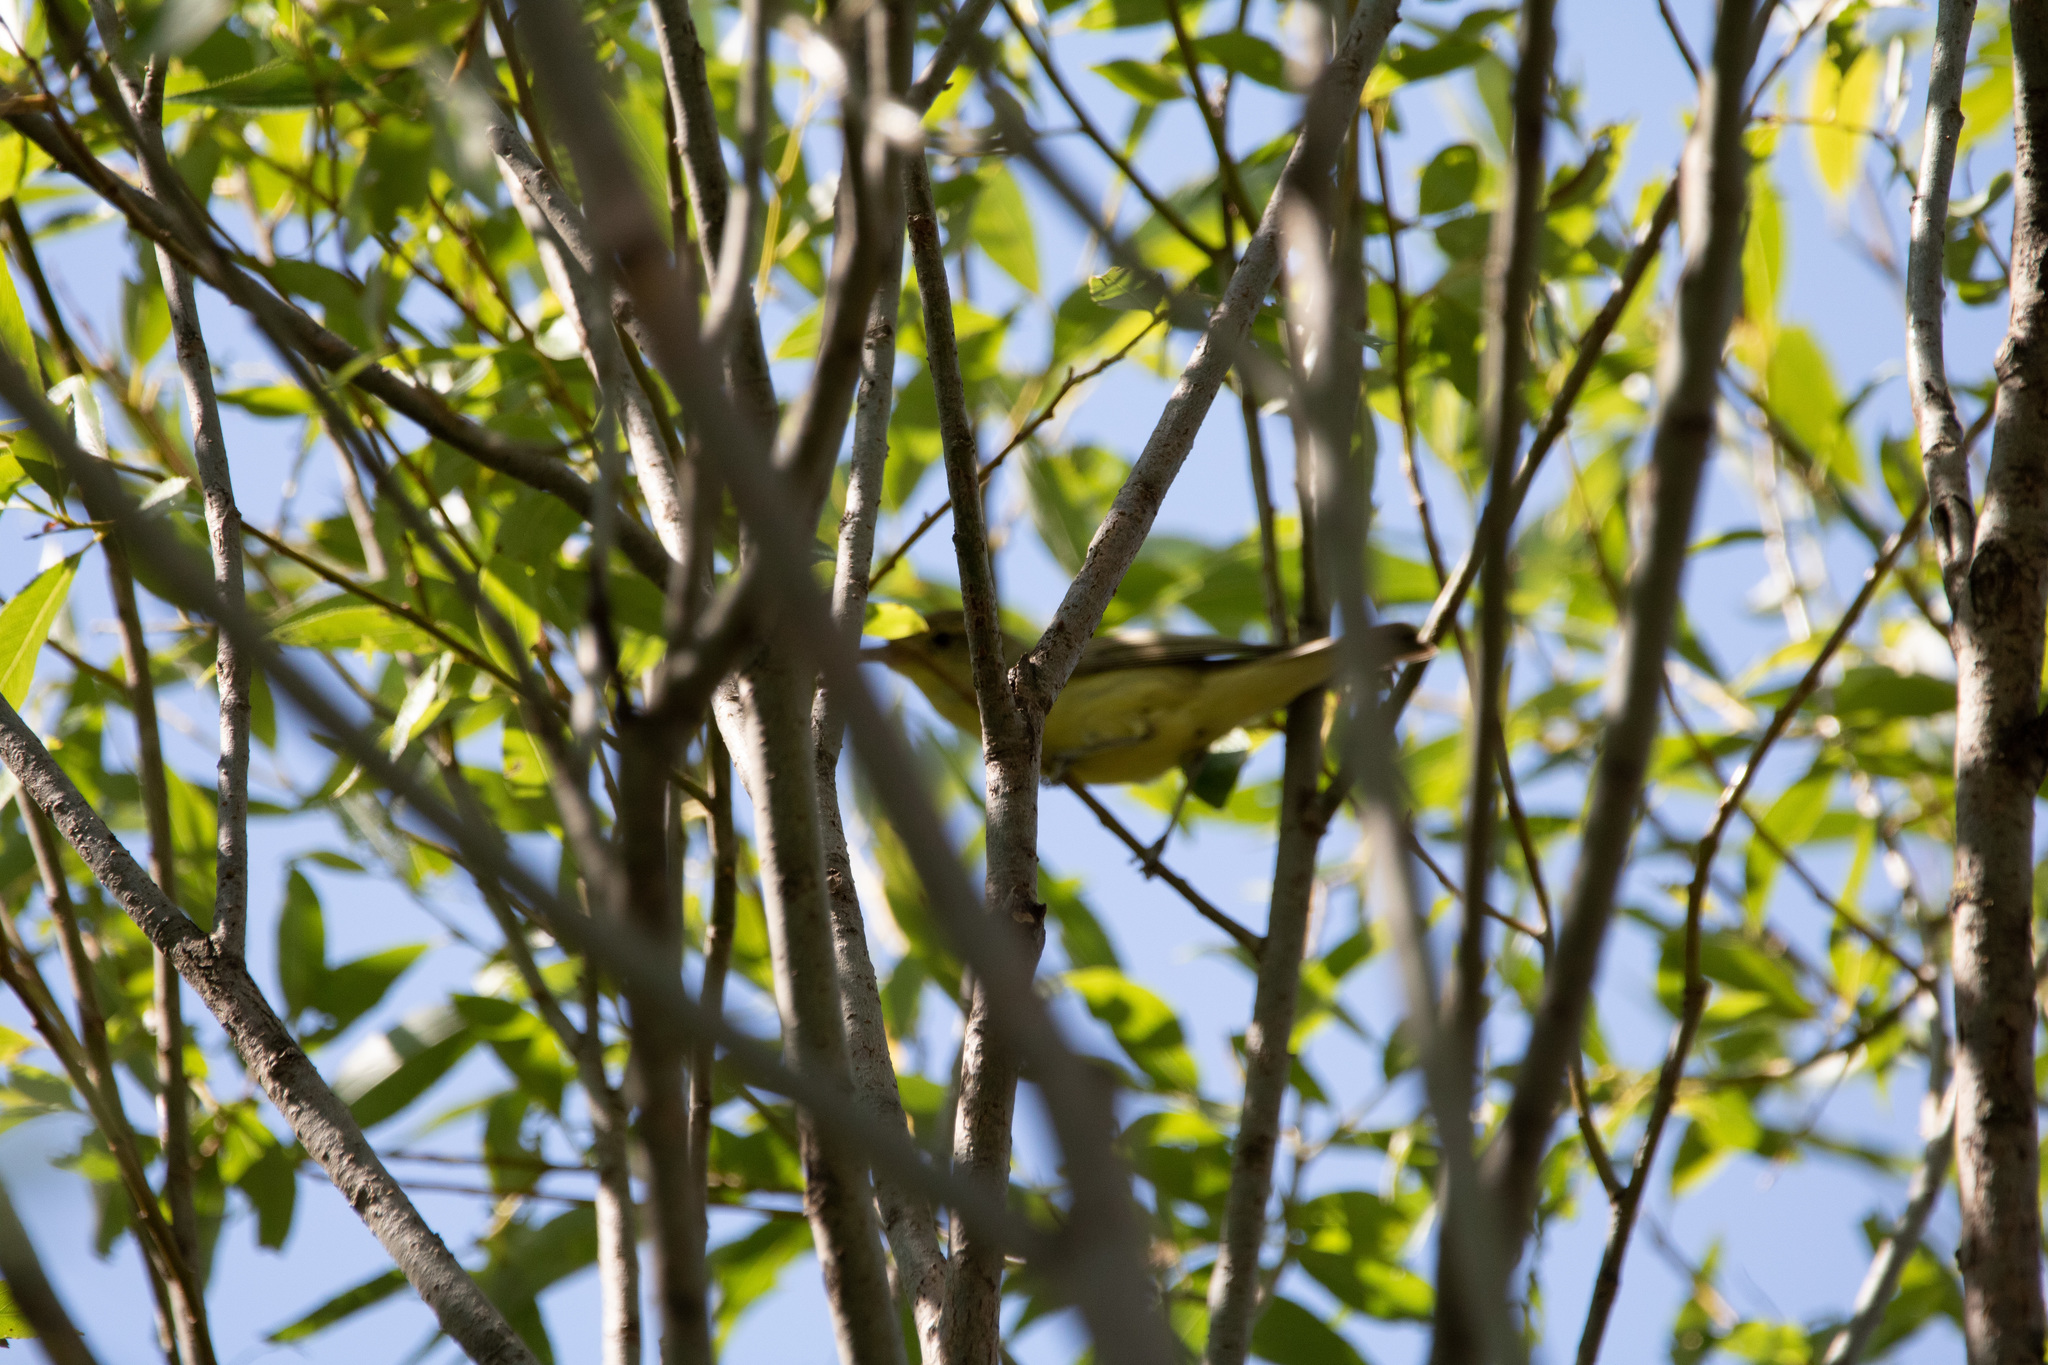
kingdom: Animalia
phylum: Chordata
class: Aves
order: Passeriformes
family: Acrocephalidae
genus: Hippolais
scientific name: Hippolais icterina
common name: Icterine warbler
